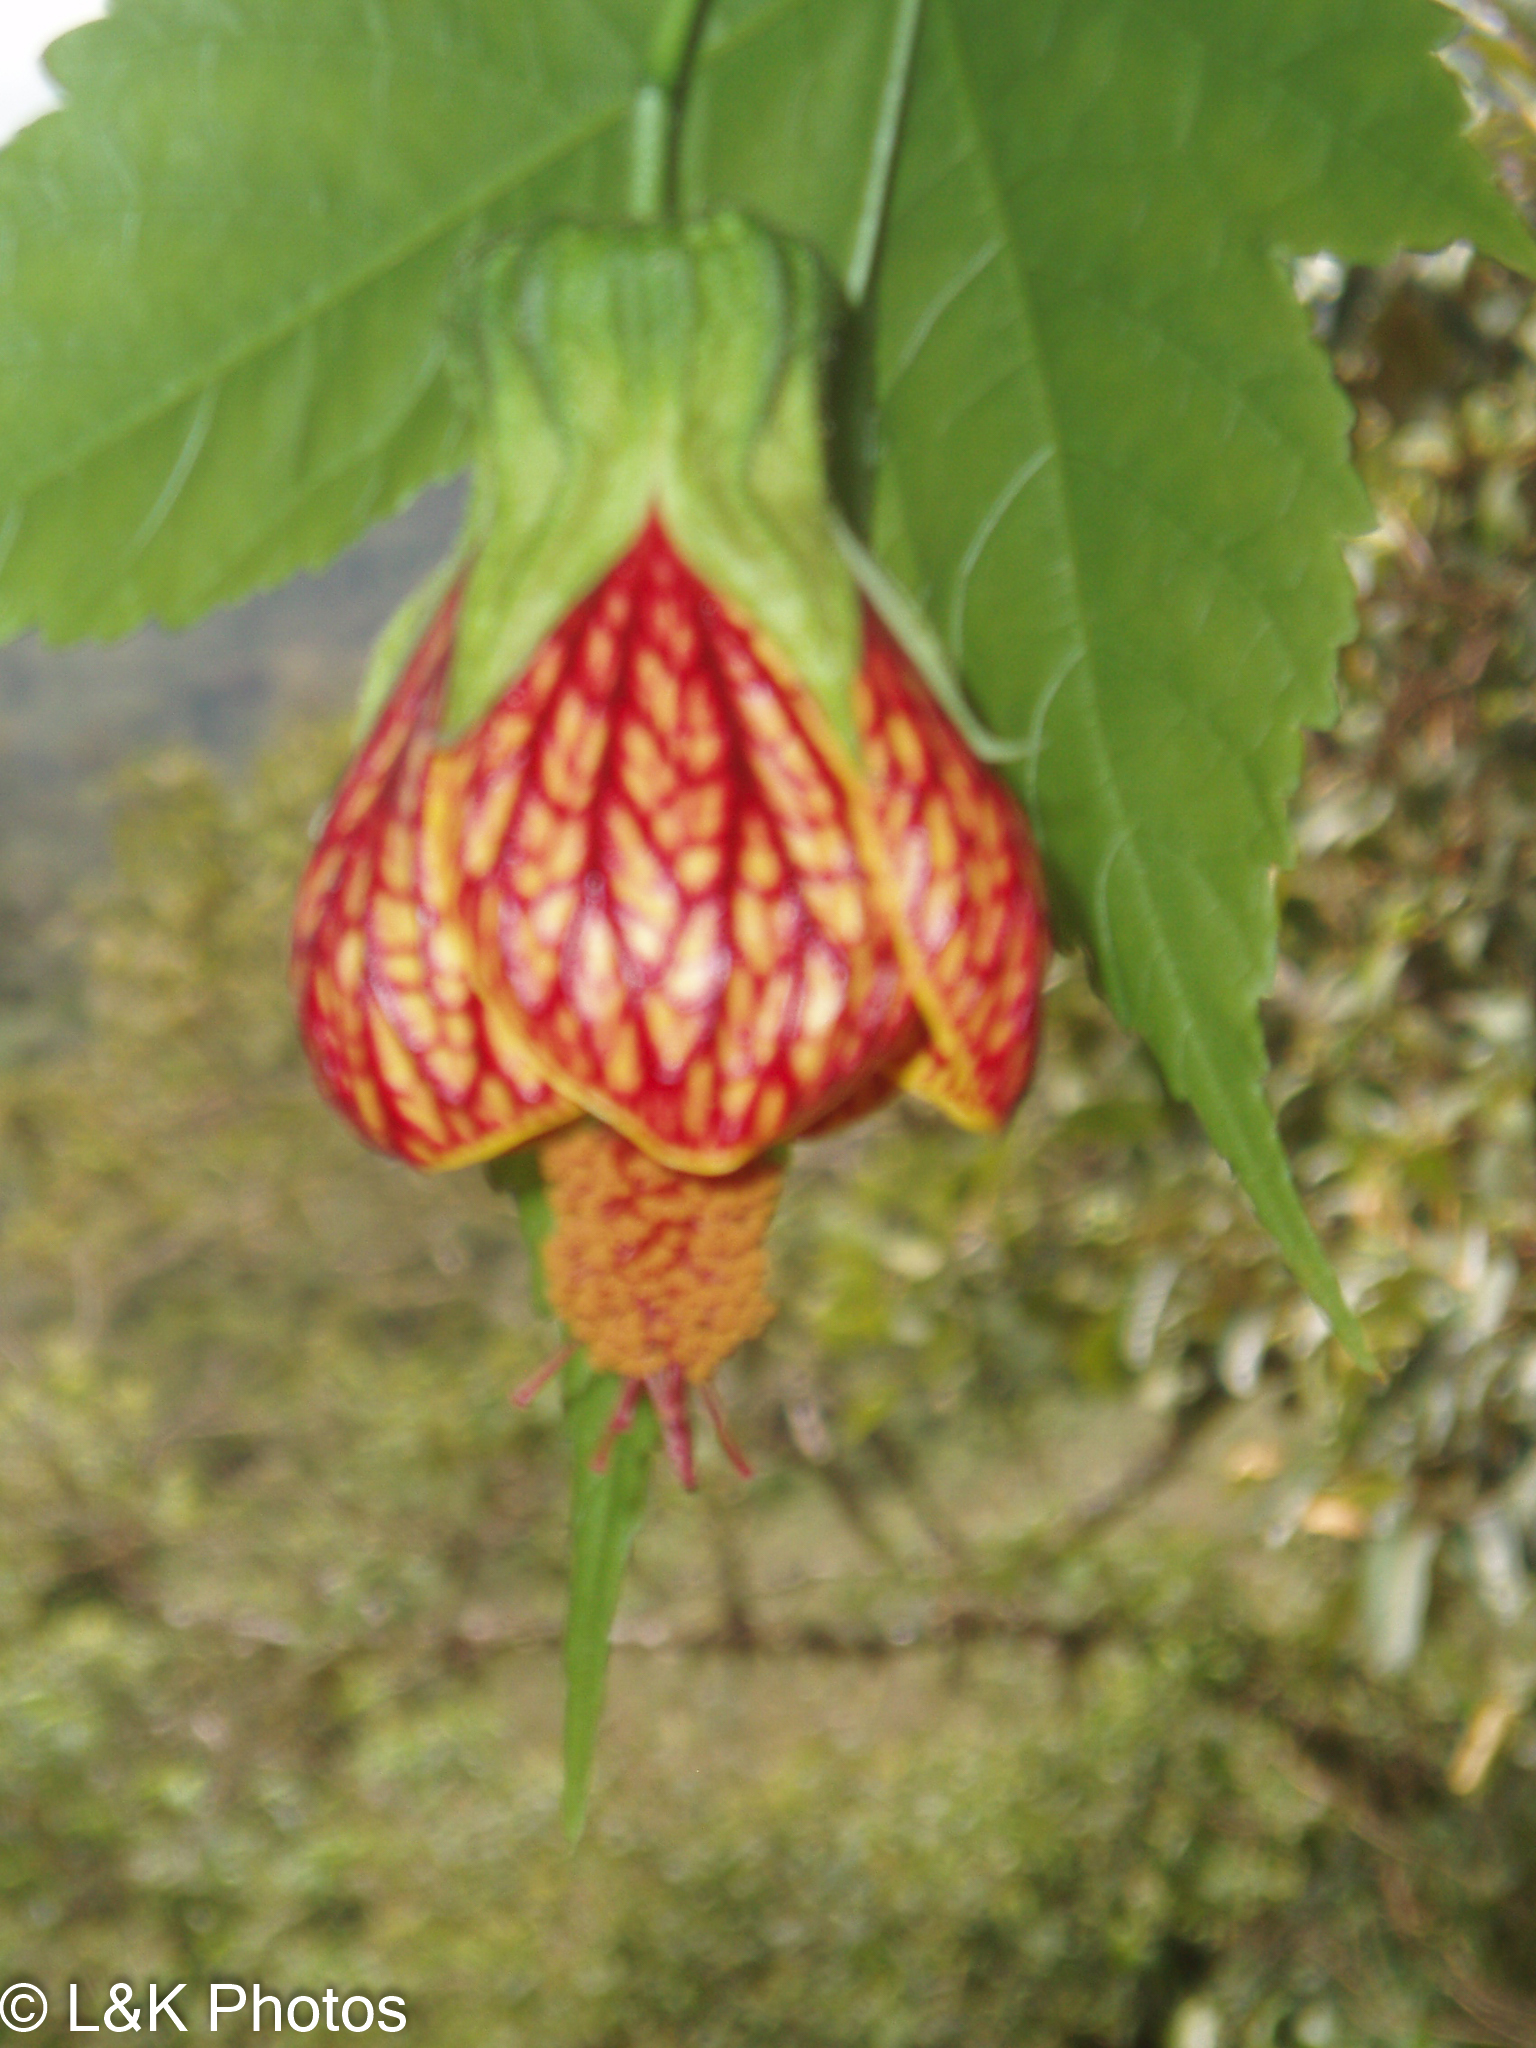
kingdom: Plantae
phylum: Tracheophyta
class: Magnoliopsida
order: Malvales
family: Malvaceae
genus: Callianthe
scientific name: Callianthe picta
